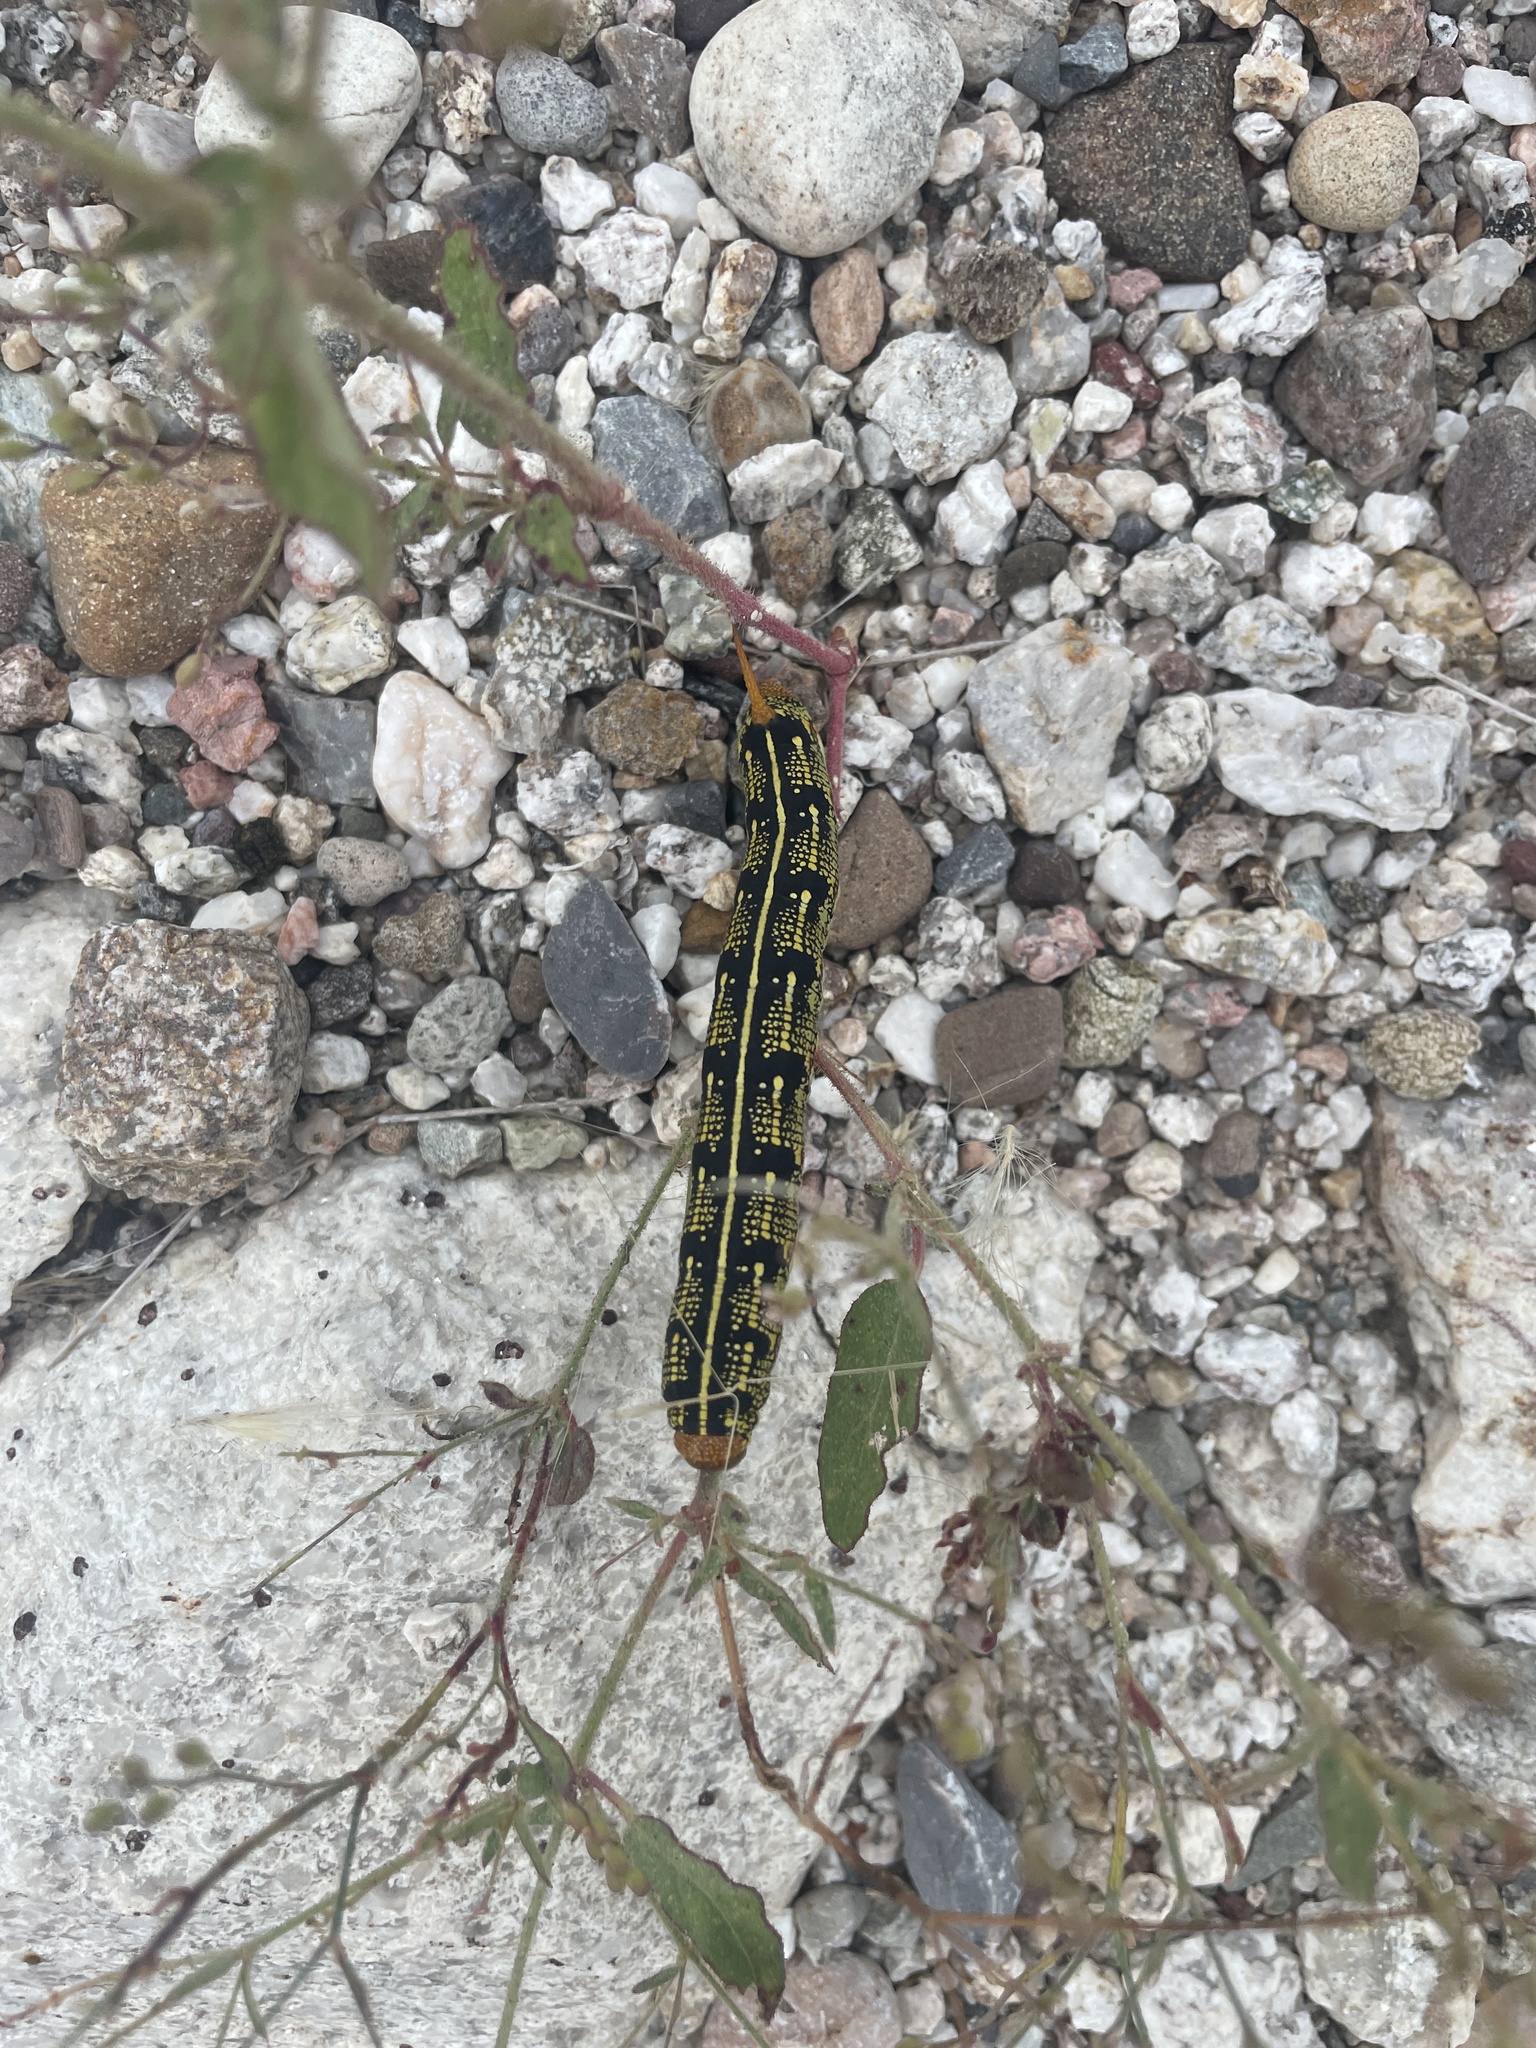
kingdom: Animalia
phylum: Arthropoda
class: Insecta
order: Lepidoptera
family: Sphingidae
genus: Hyles
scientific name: Hyles lineata
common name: White-lined sphinx
